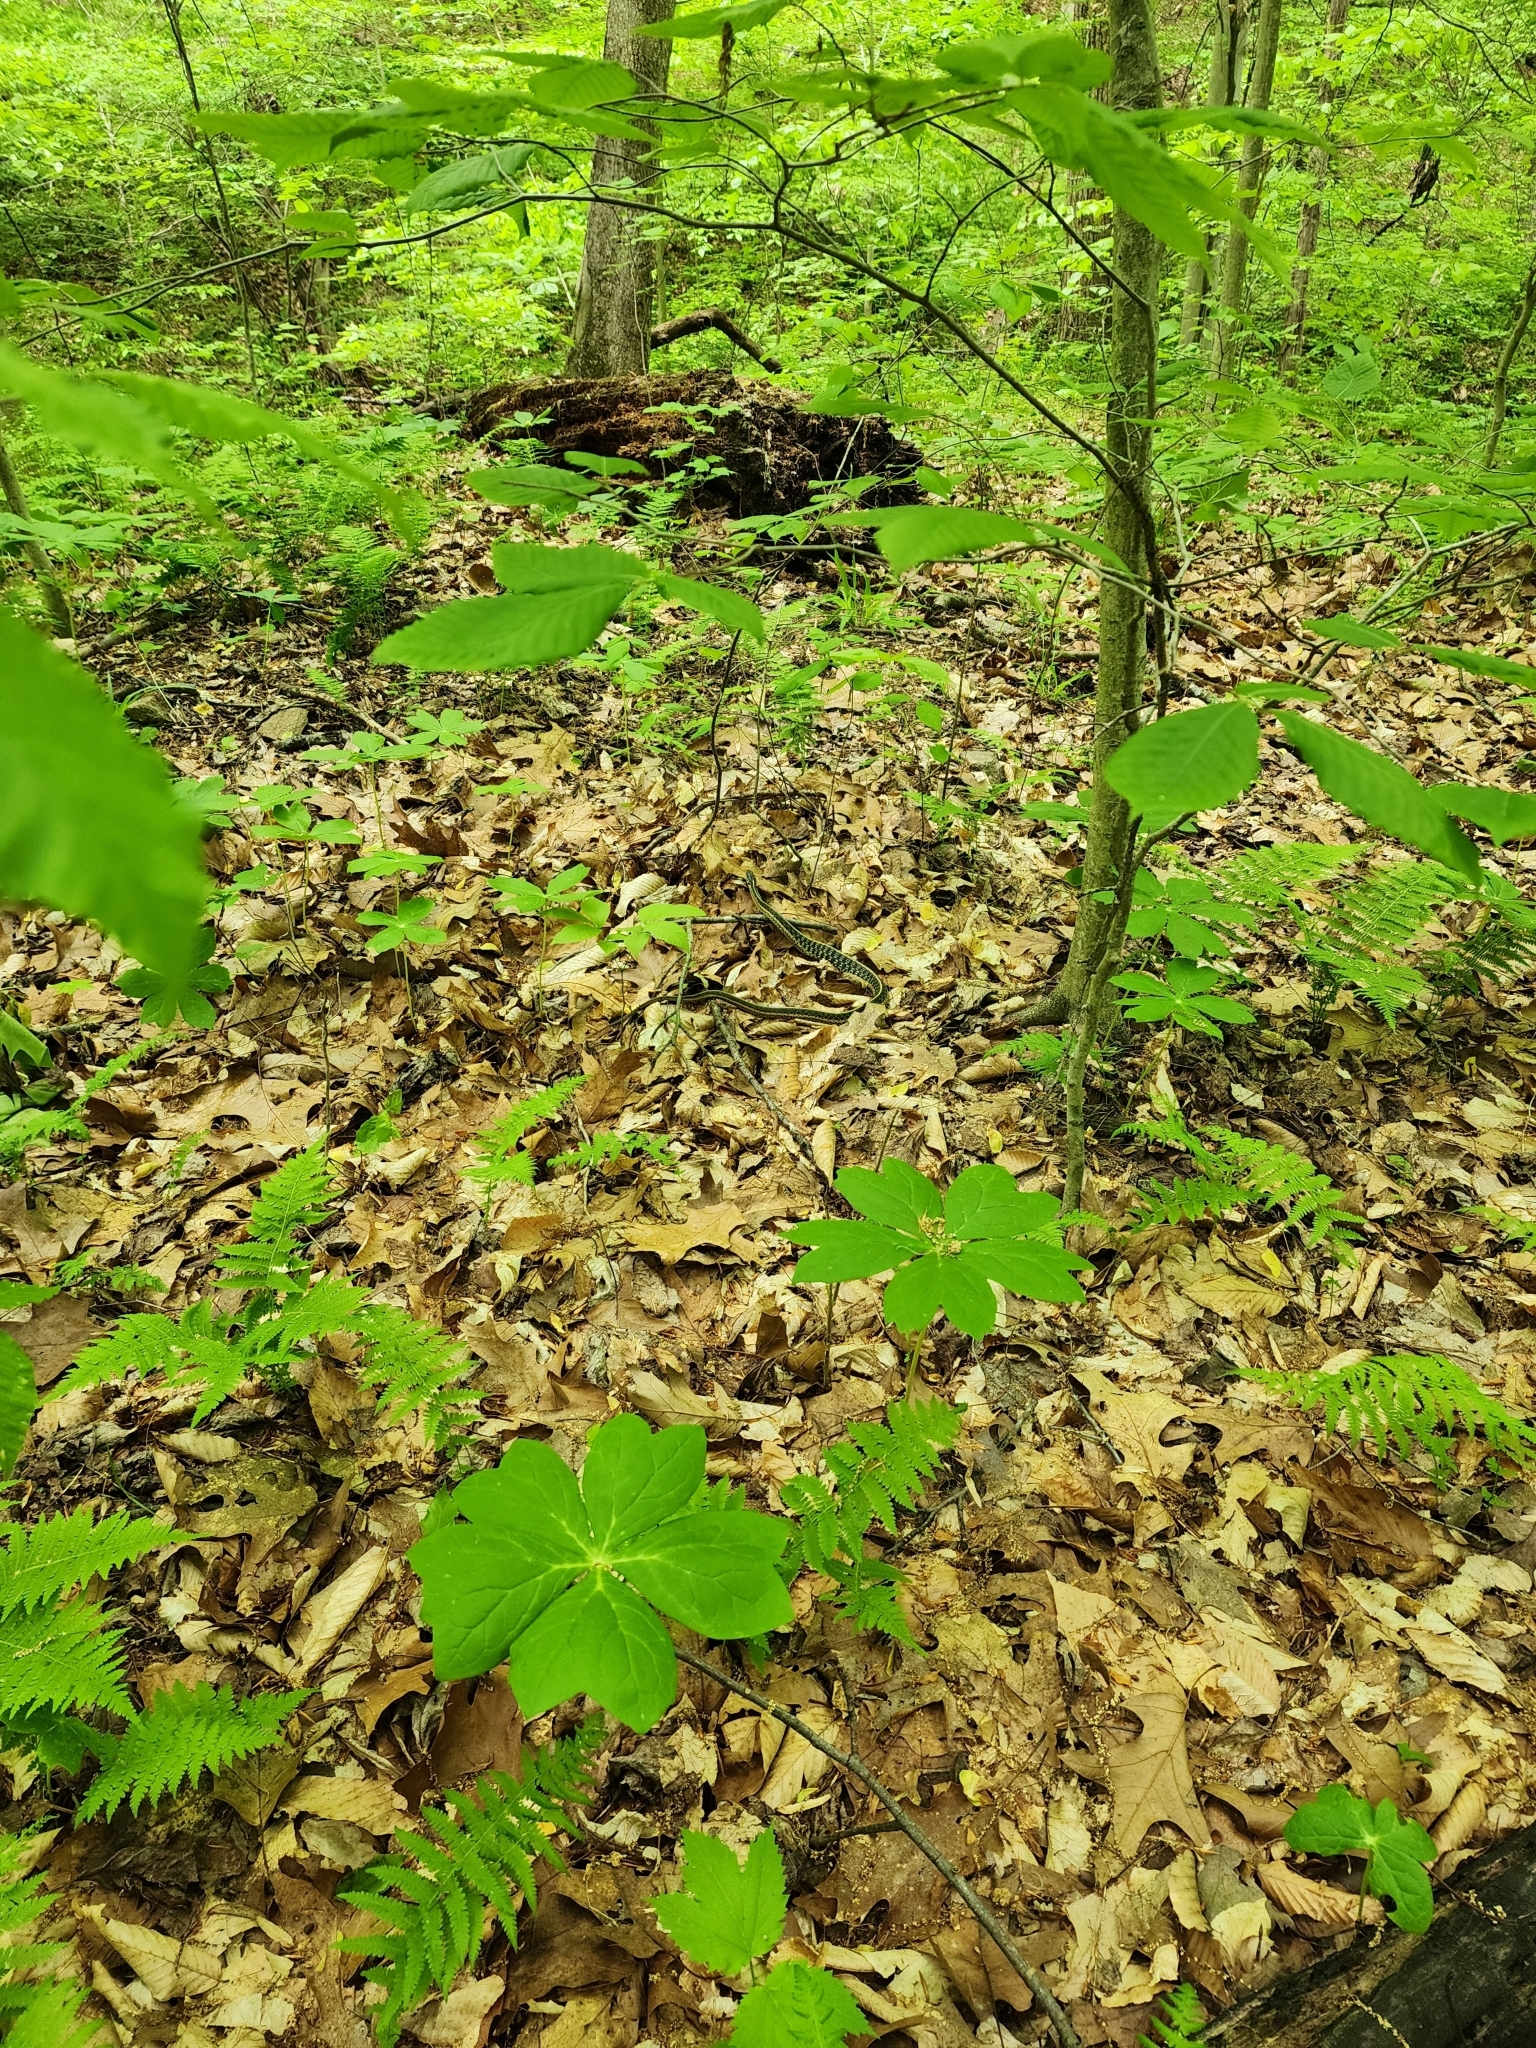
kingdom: Animalia
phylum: Chordata
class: Squamata
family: Colubridae
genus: Thamnophis
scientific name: Thamnophis sirtalis
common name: Common garter snake
